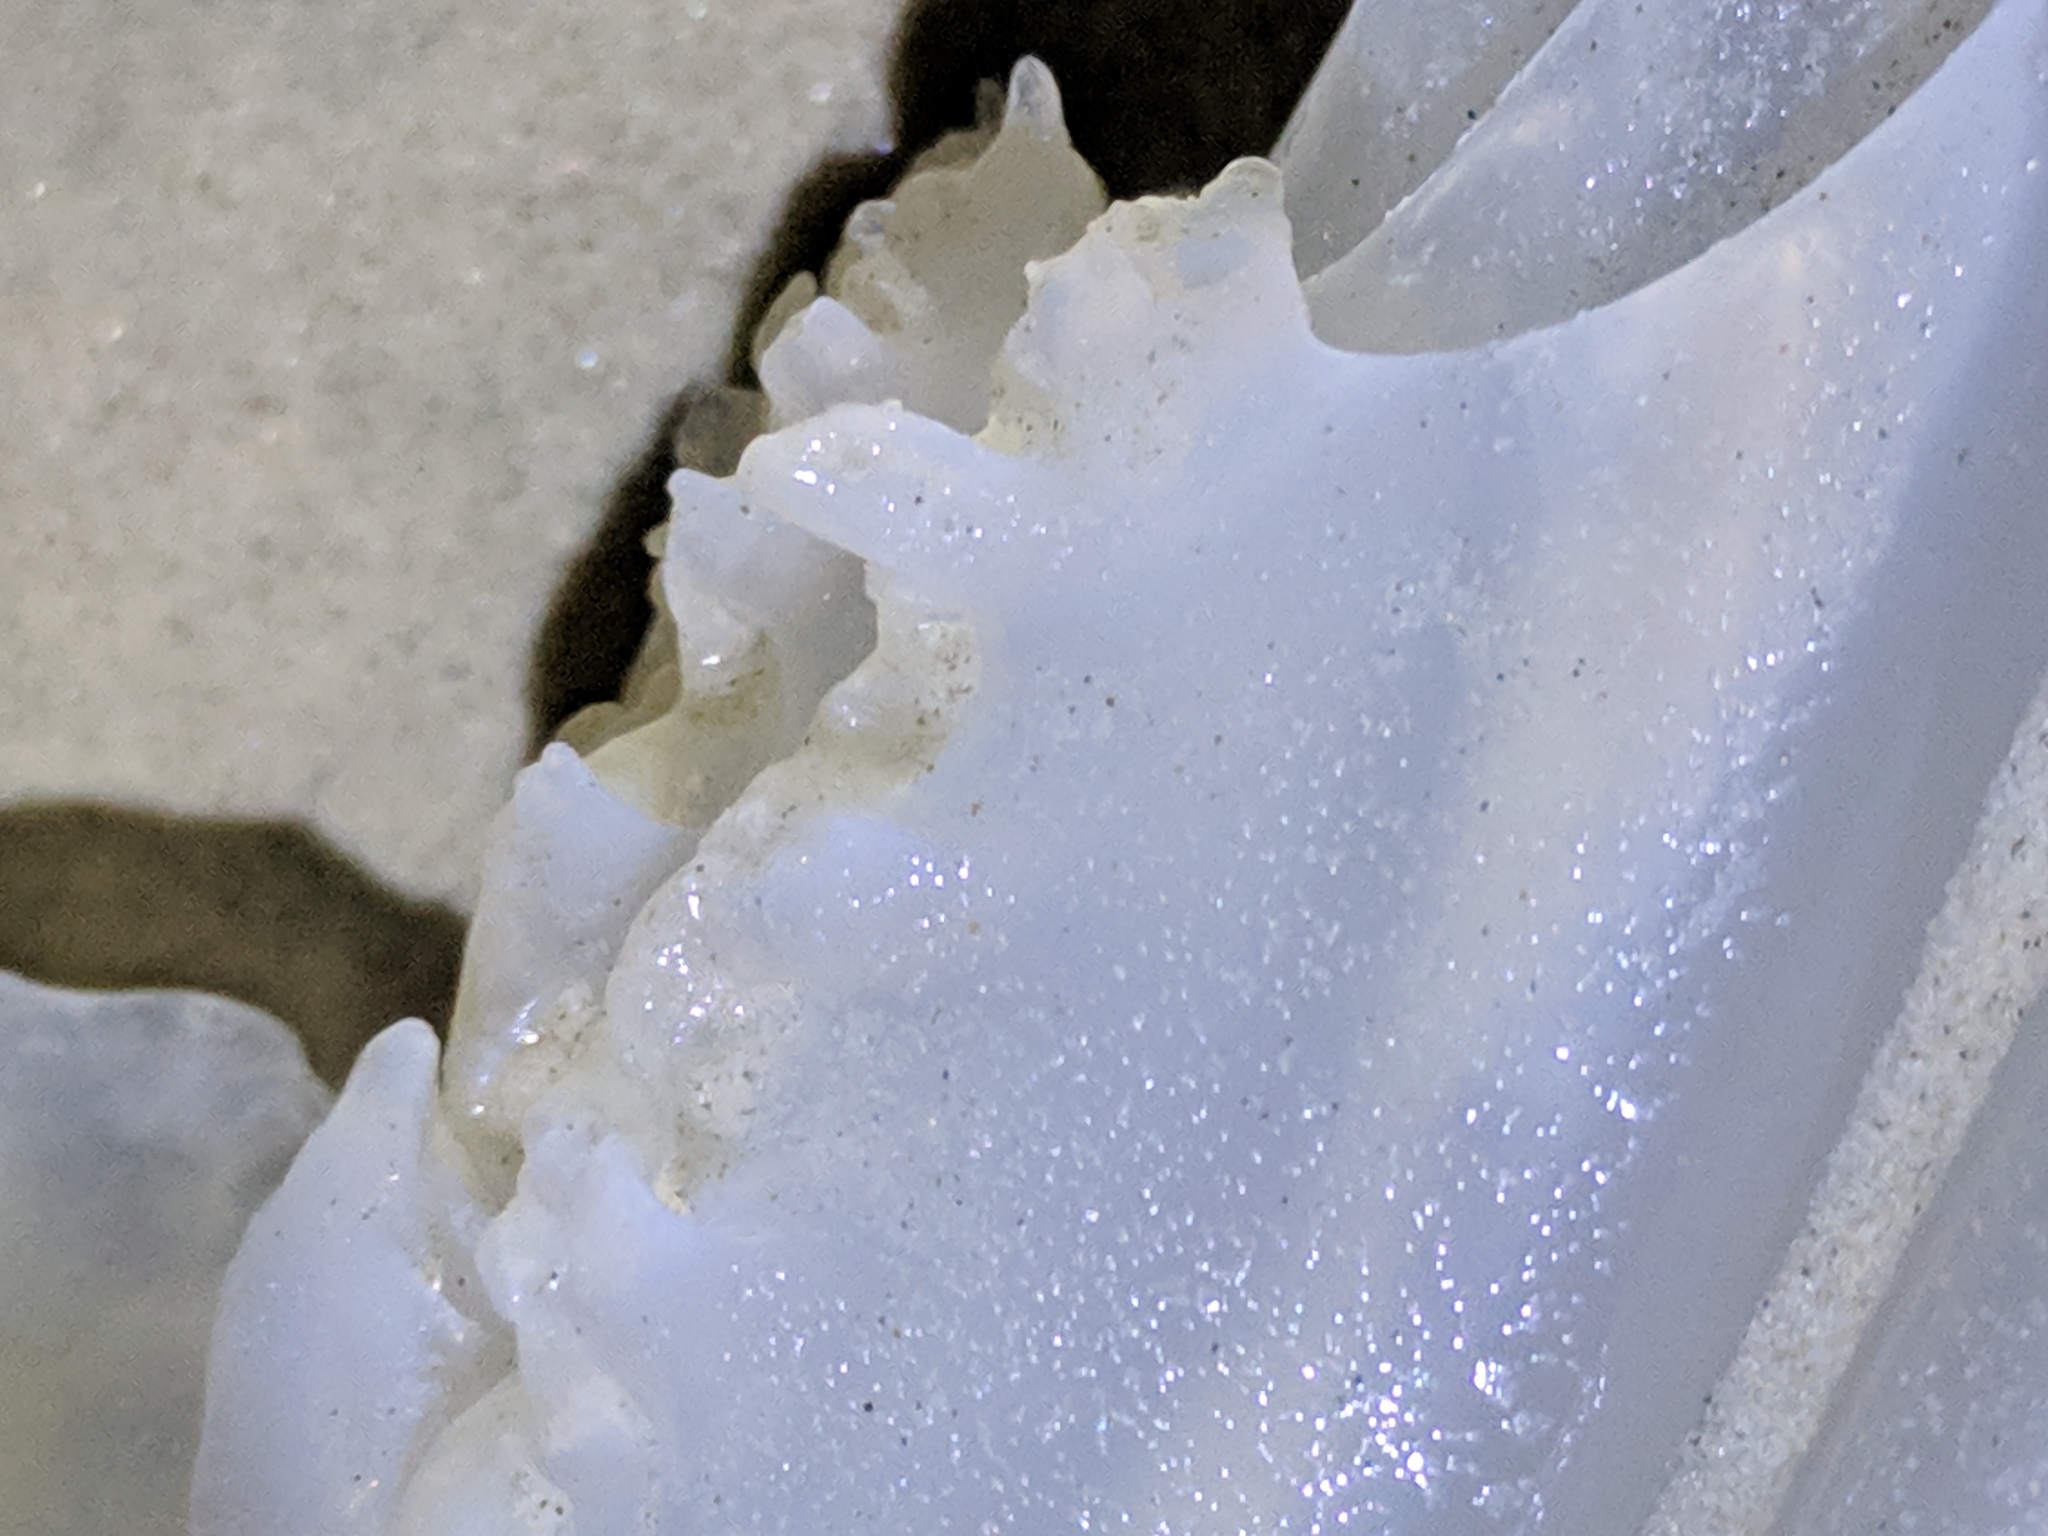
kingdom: Animalia
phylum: Cnidaria
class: Scyphozoa
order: Rhizostomeae
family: Stomolophidae
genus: Stomolophus
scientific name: Stomolophus meleagris
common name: Cabbagehead
